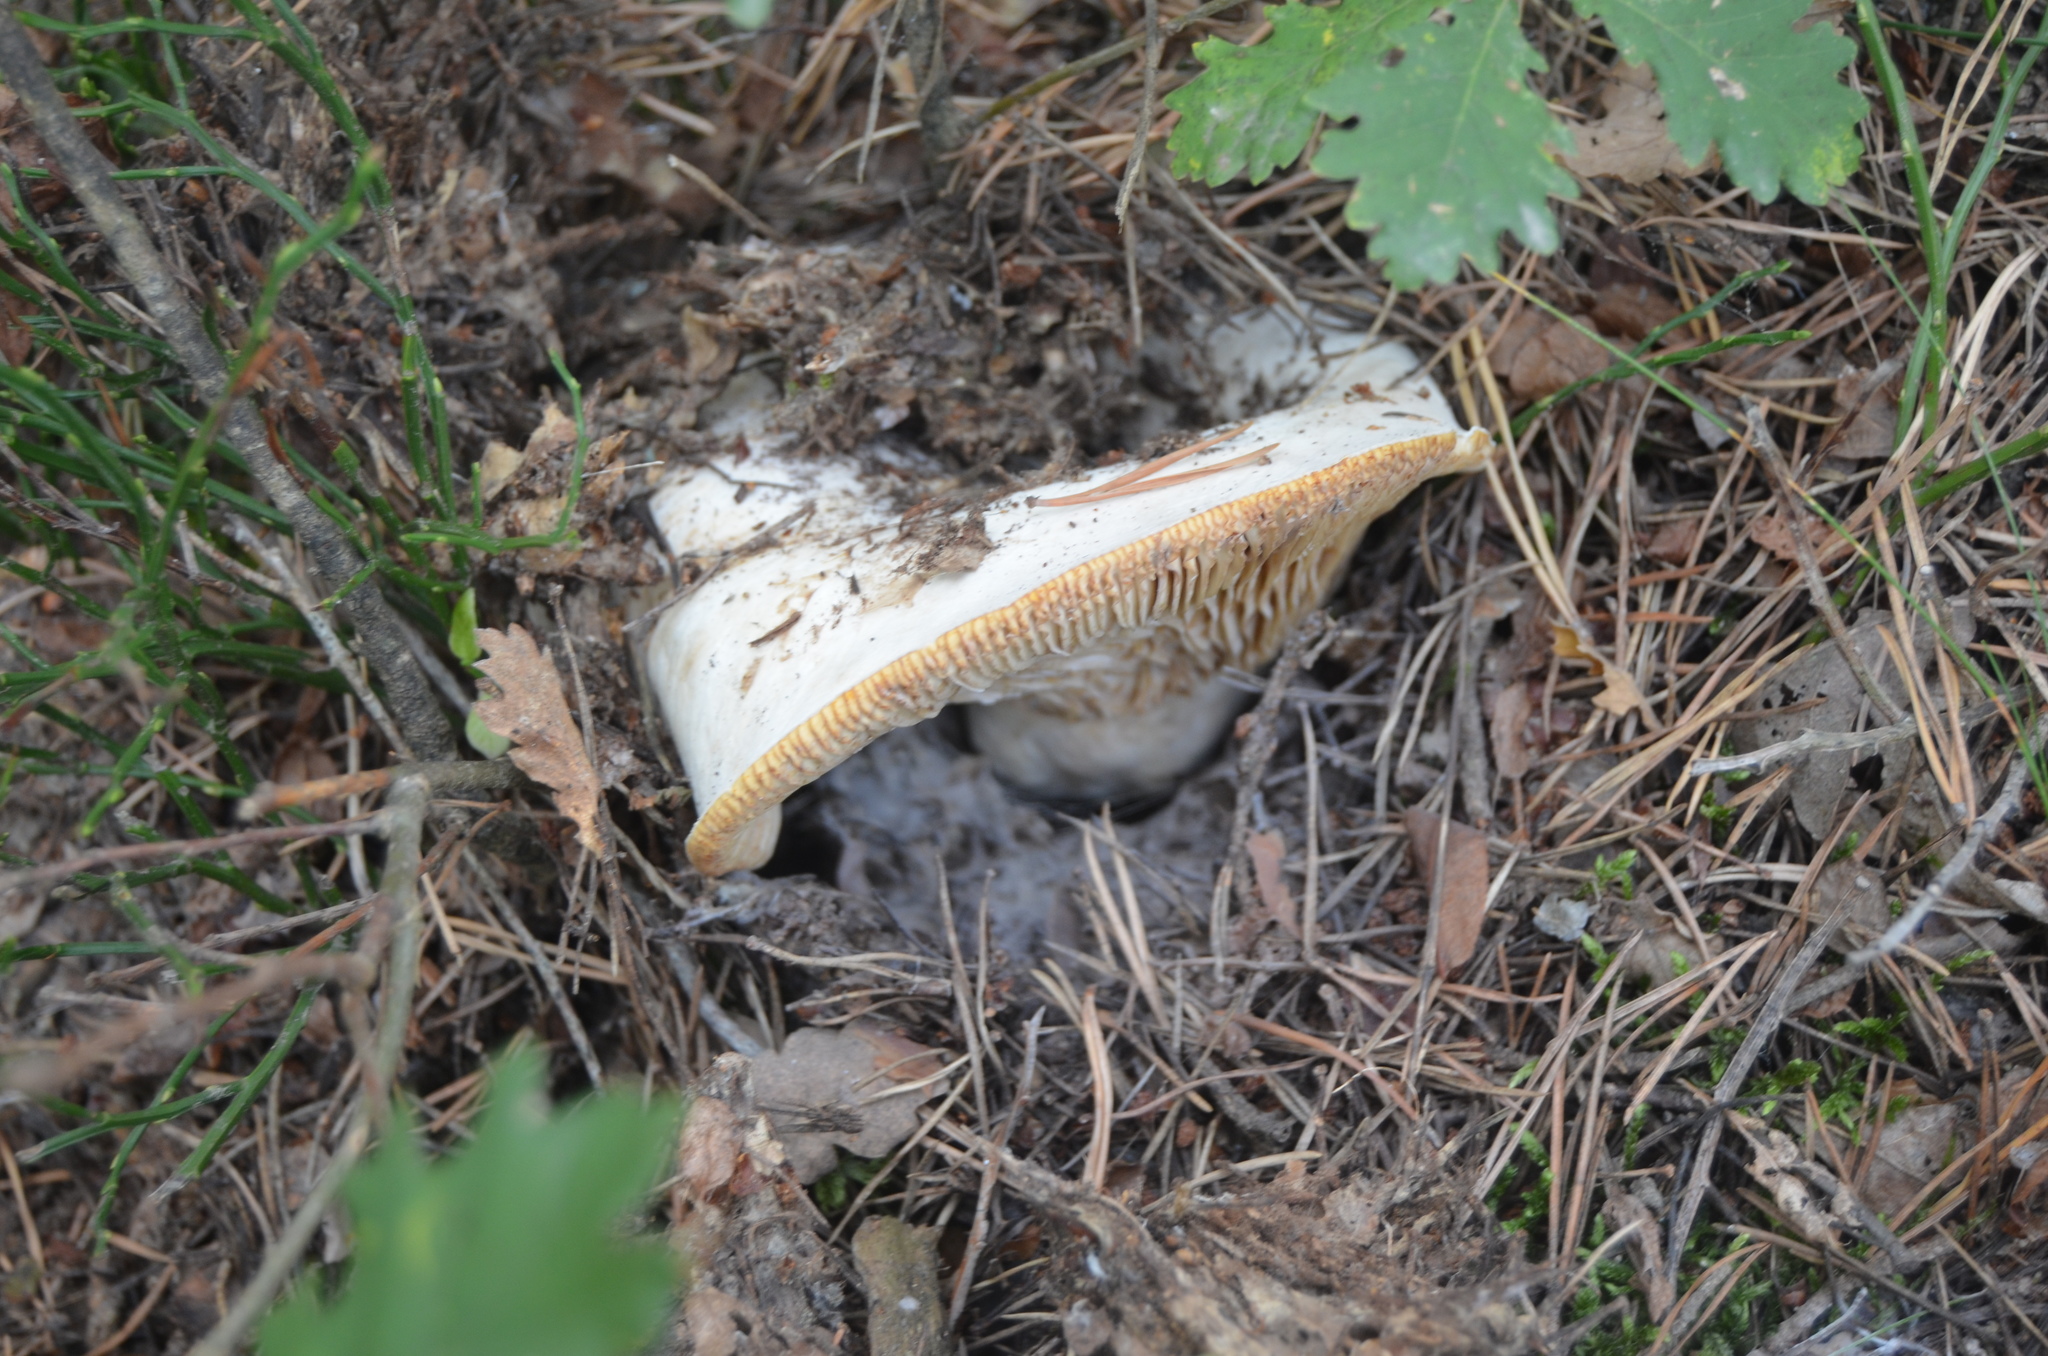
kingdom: Fungi
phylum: Basidiomycota
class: Agaricomycetes
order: Russulales
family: Russulaceae
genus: Russula
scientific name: Russula delica
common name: Milk white brittlegill
